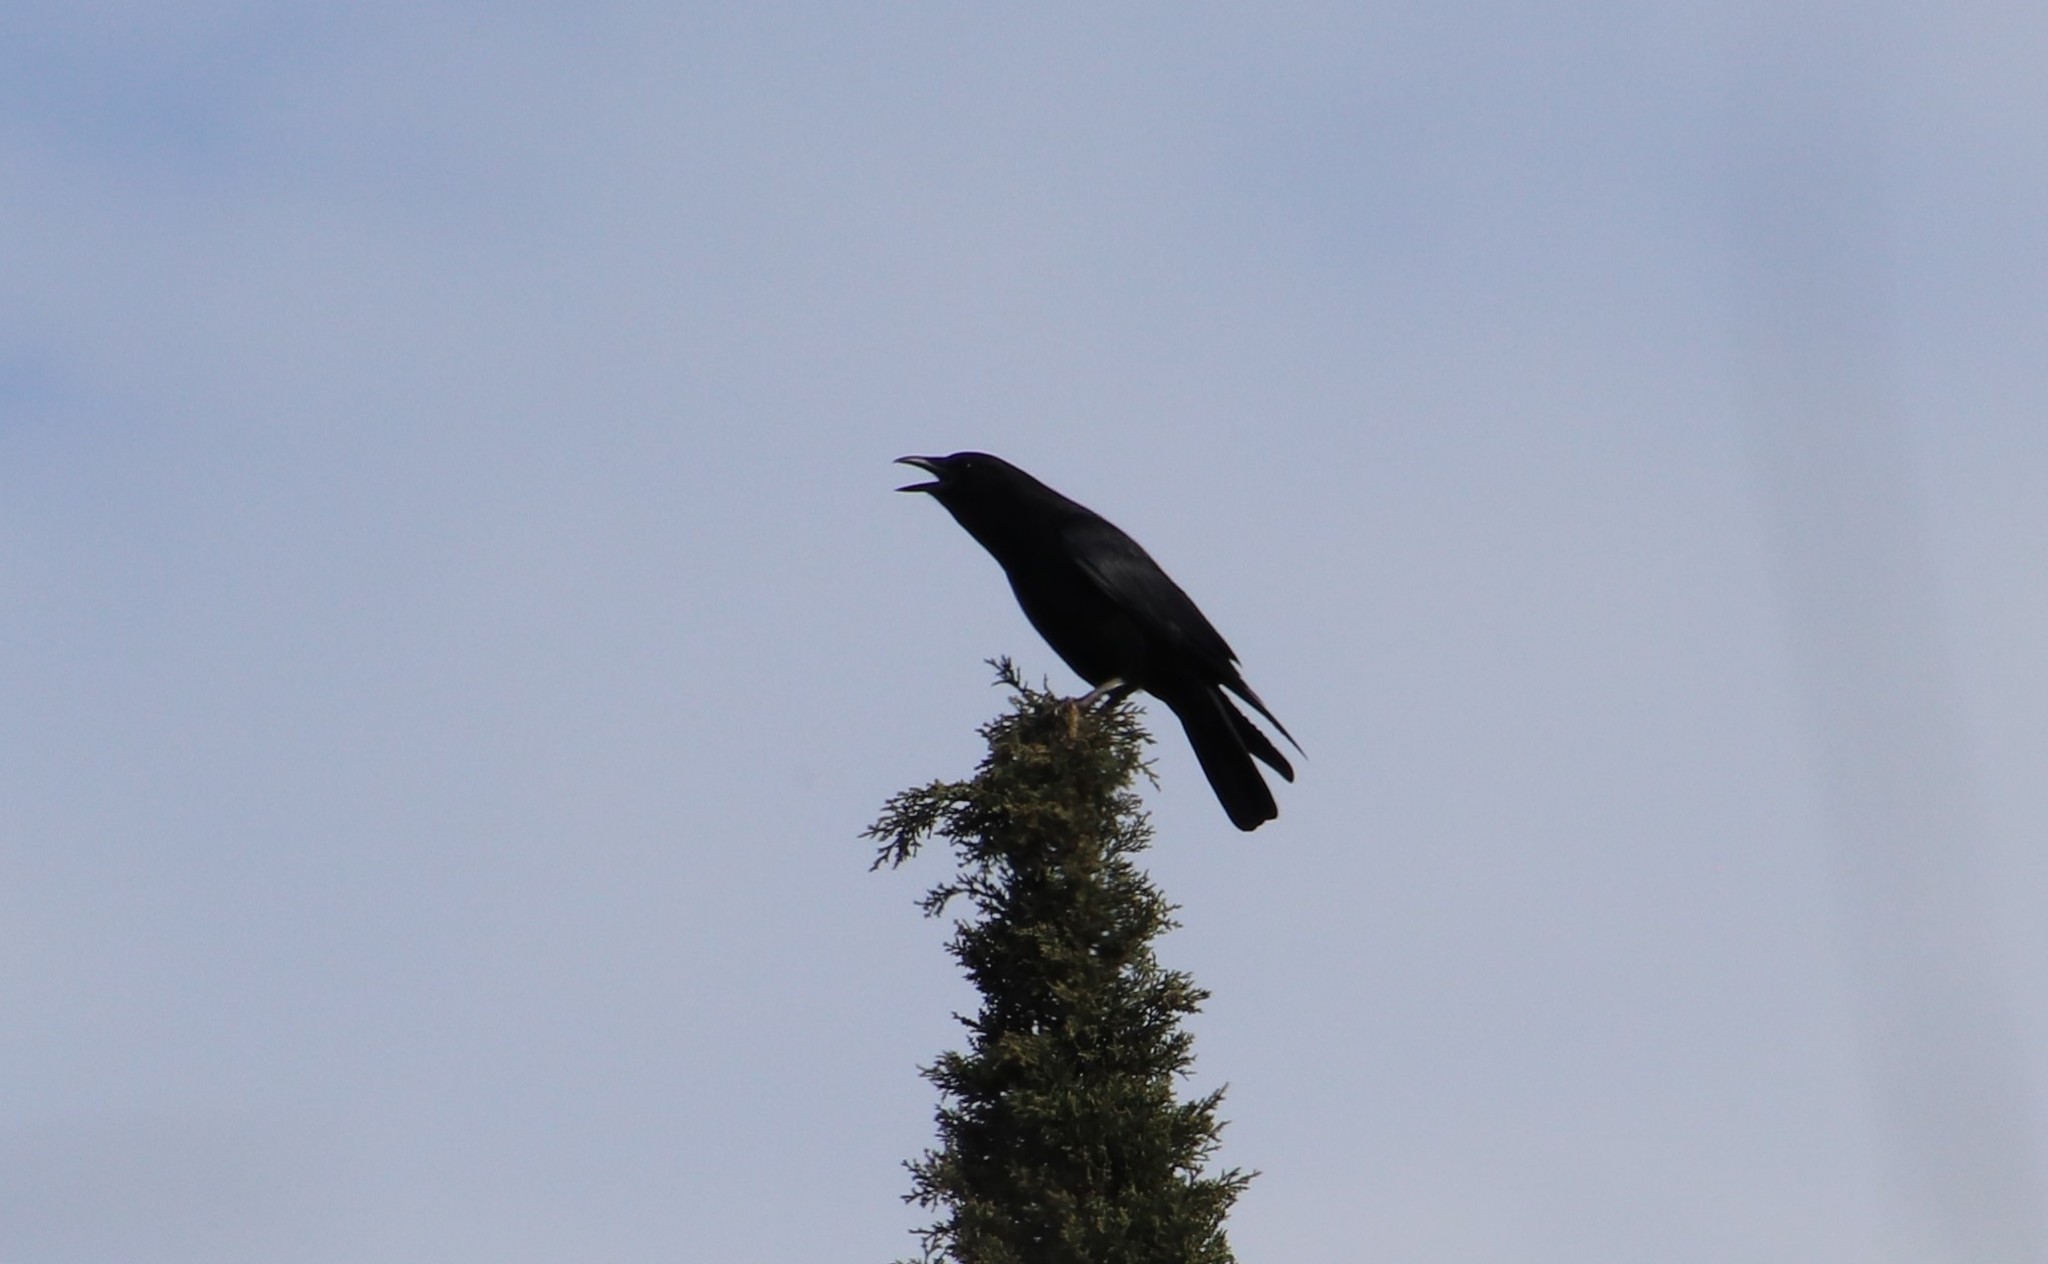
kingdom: Animalia
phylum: Chordata
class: Aves
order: Passeriformes
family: Corvidae
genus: Corvus
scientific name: Corvus brachyrhynchos
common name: American crow
